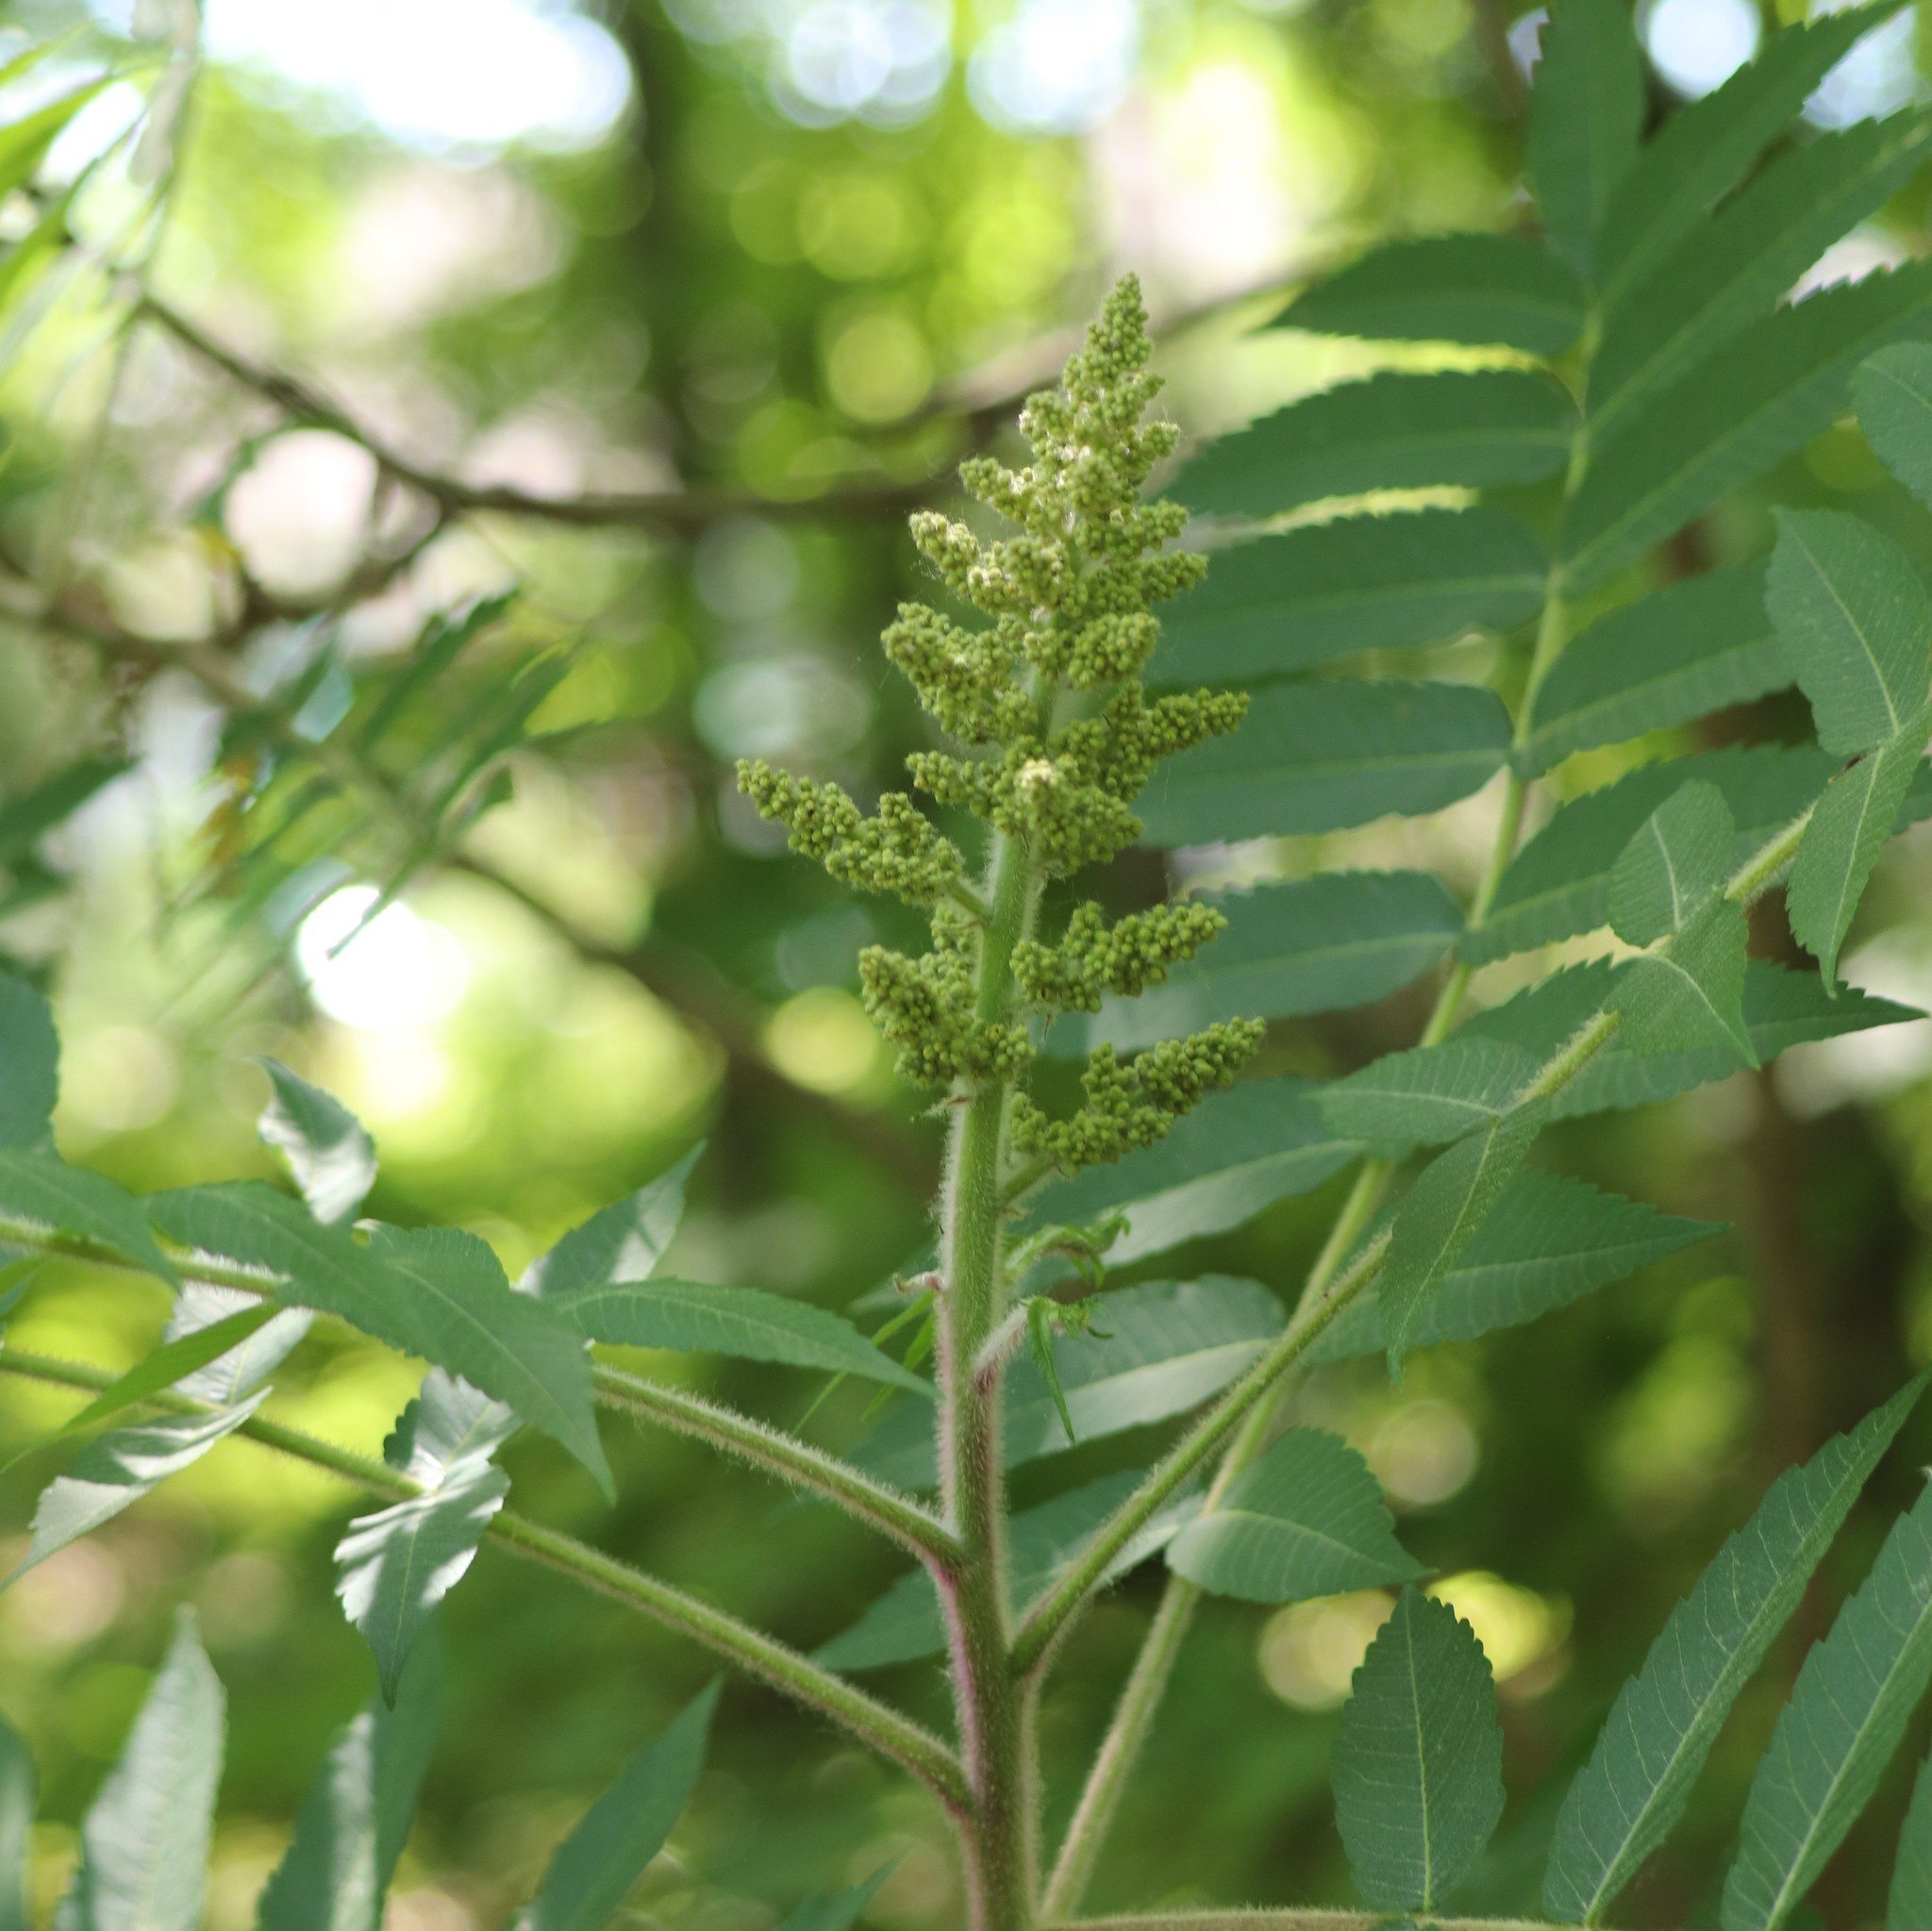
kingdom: Plantae
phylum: Tracheophyta
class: Magnoliopsida
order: Sapindales
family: Anacardiaceae
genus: Rhus
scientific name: Rhus typhina
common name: Staghorn sumac
